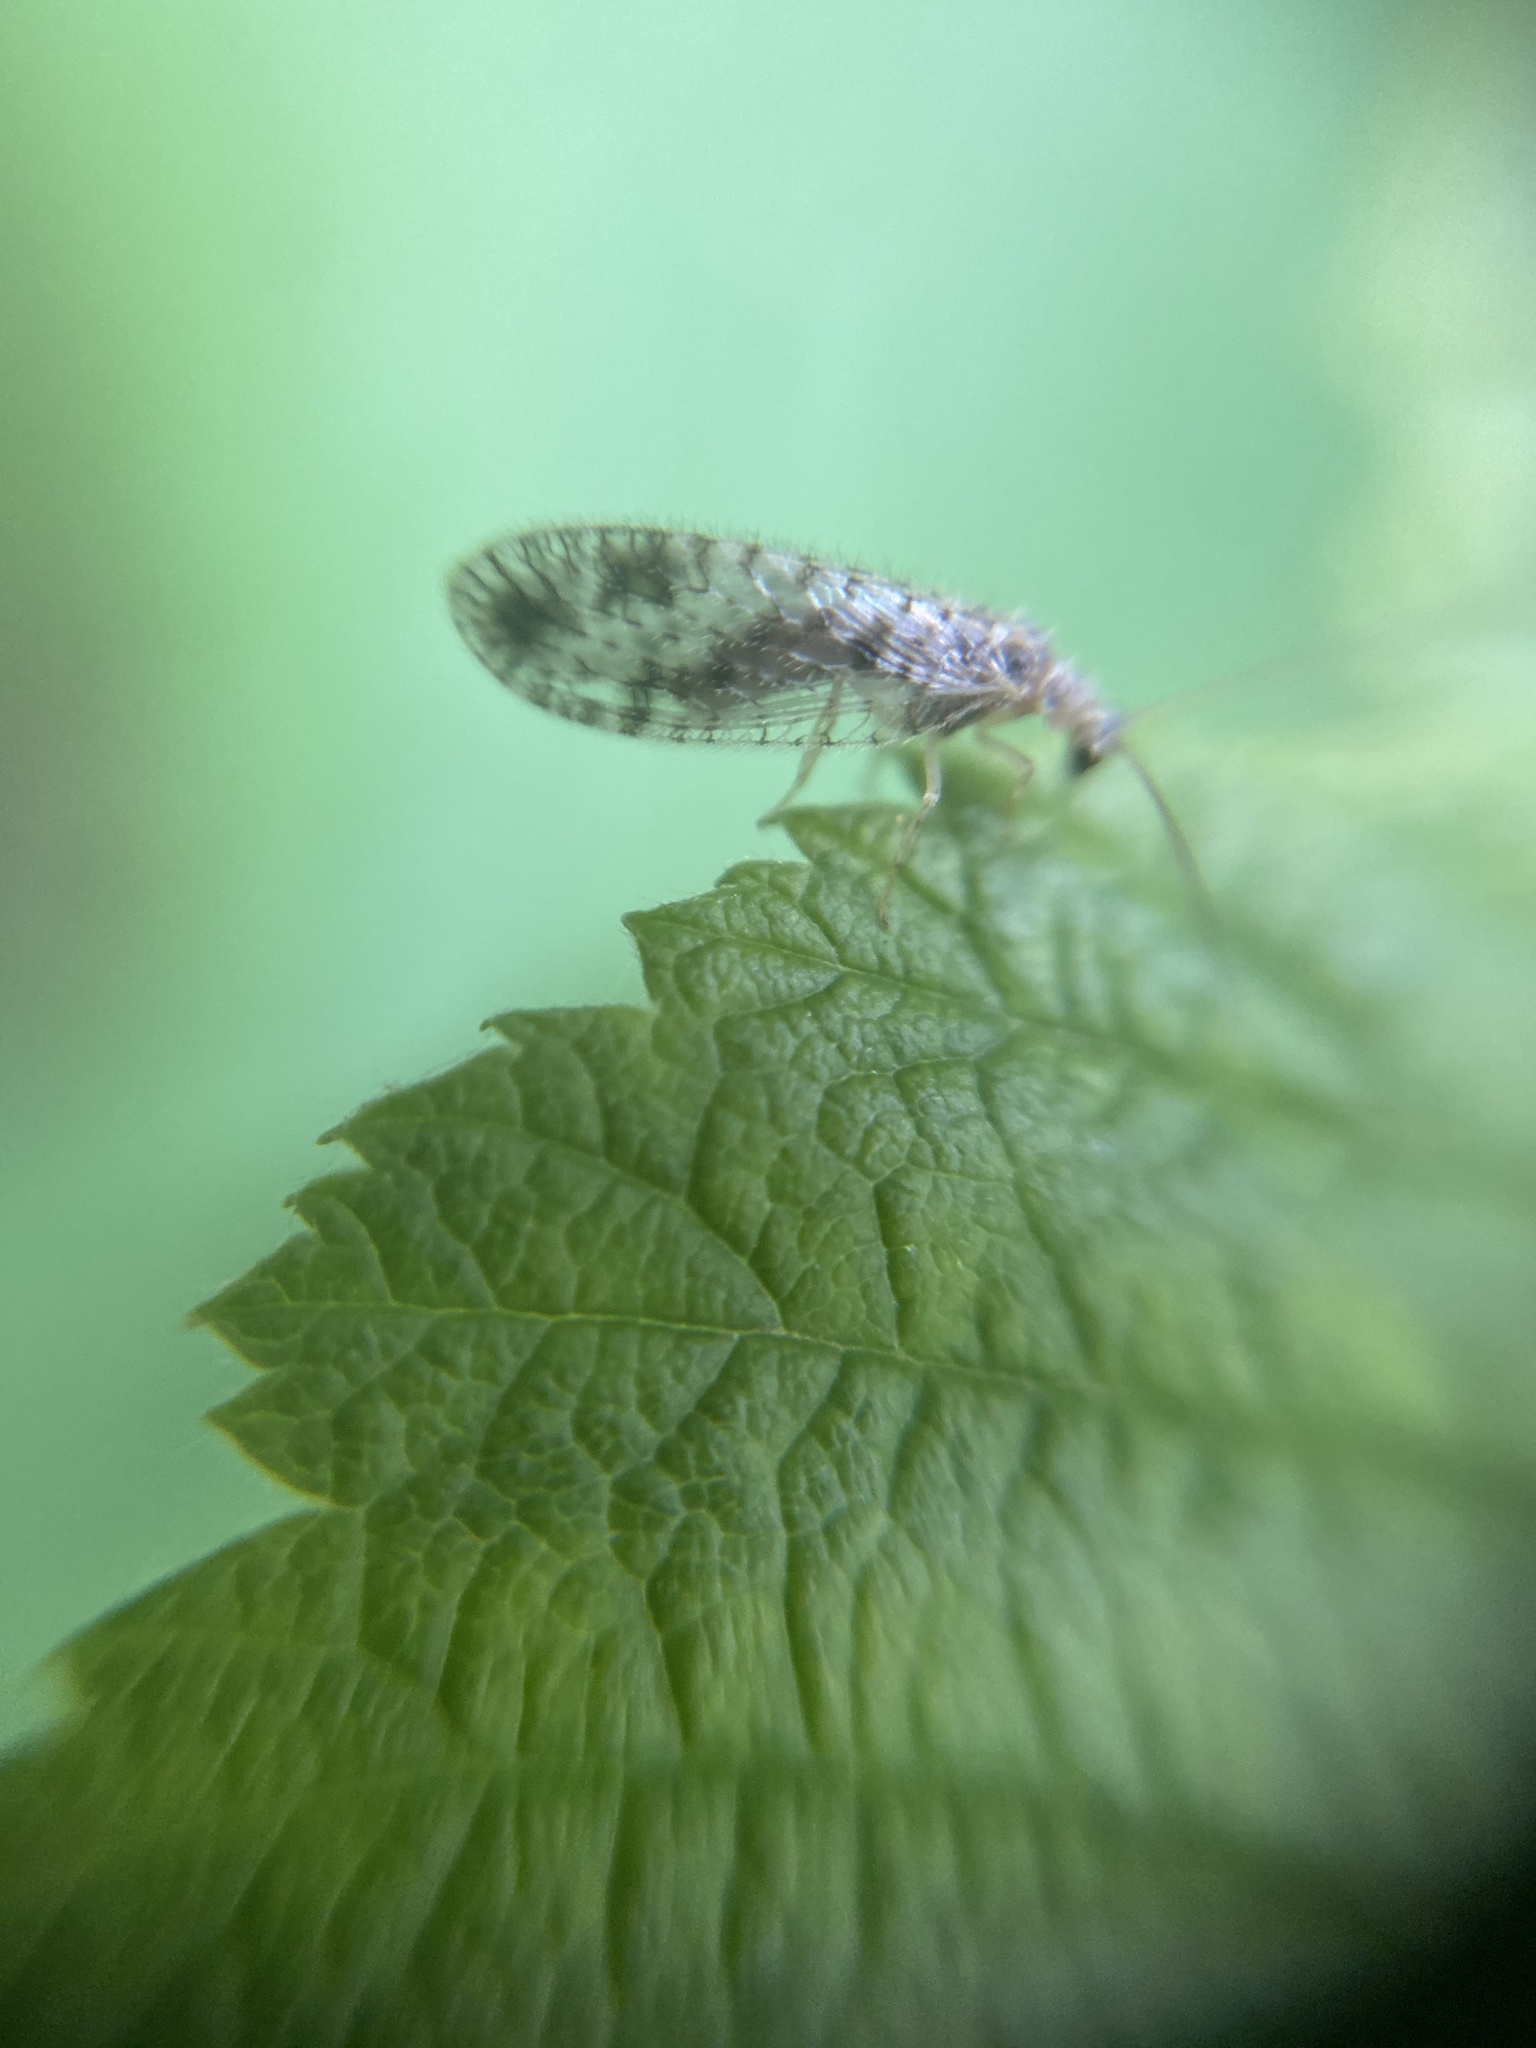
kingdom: Animalia
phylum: Arthropoda
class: Insecta
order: Neuroptera
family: Hemerobiidae
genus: Micromus
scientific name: Micromus variegatus
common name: Brown lacewing
